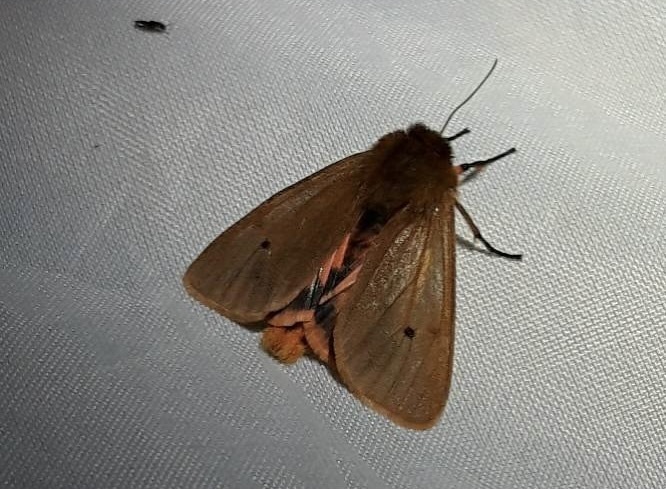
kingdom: Animalia
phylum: Arthropoda
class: Insecta
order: Lepidoptera
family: Erebidae
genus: Phragmatobia
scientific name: Phragmatobia fuliginosa
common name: Ruby tiger
